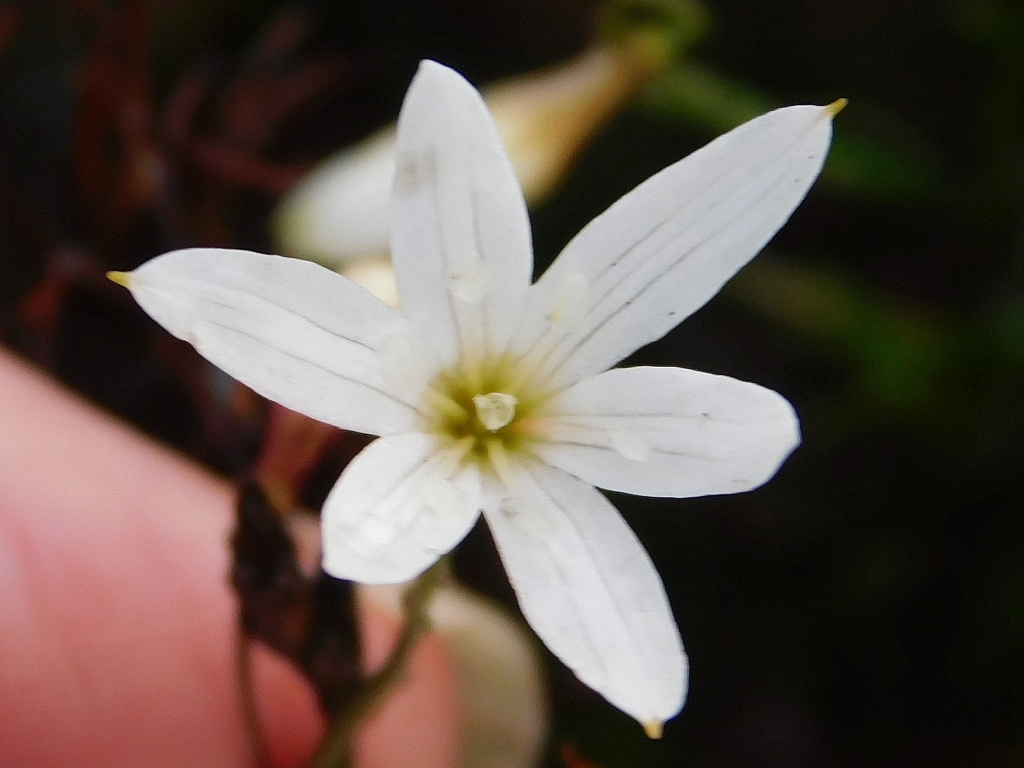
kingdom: Plantae
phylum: Tracheophyta
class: Liliopsida
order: Asparagales
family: Amaryllidaceae
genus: Strumaria
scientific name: Strumaria spiralis
